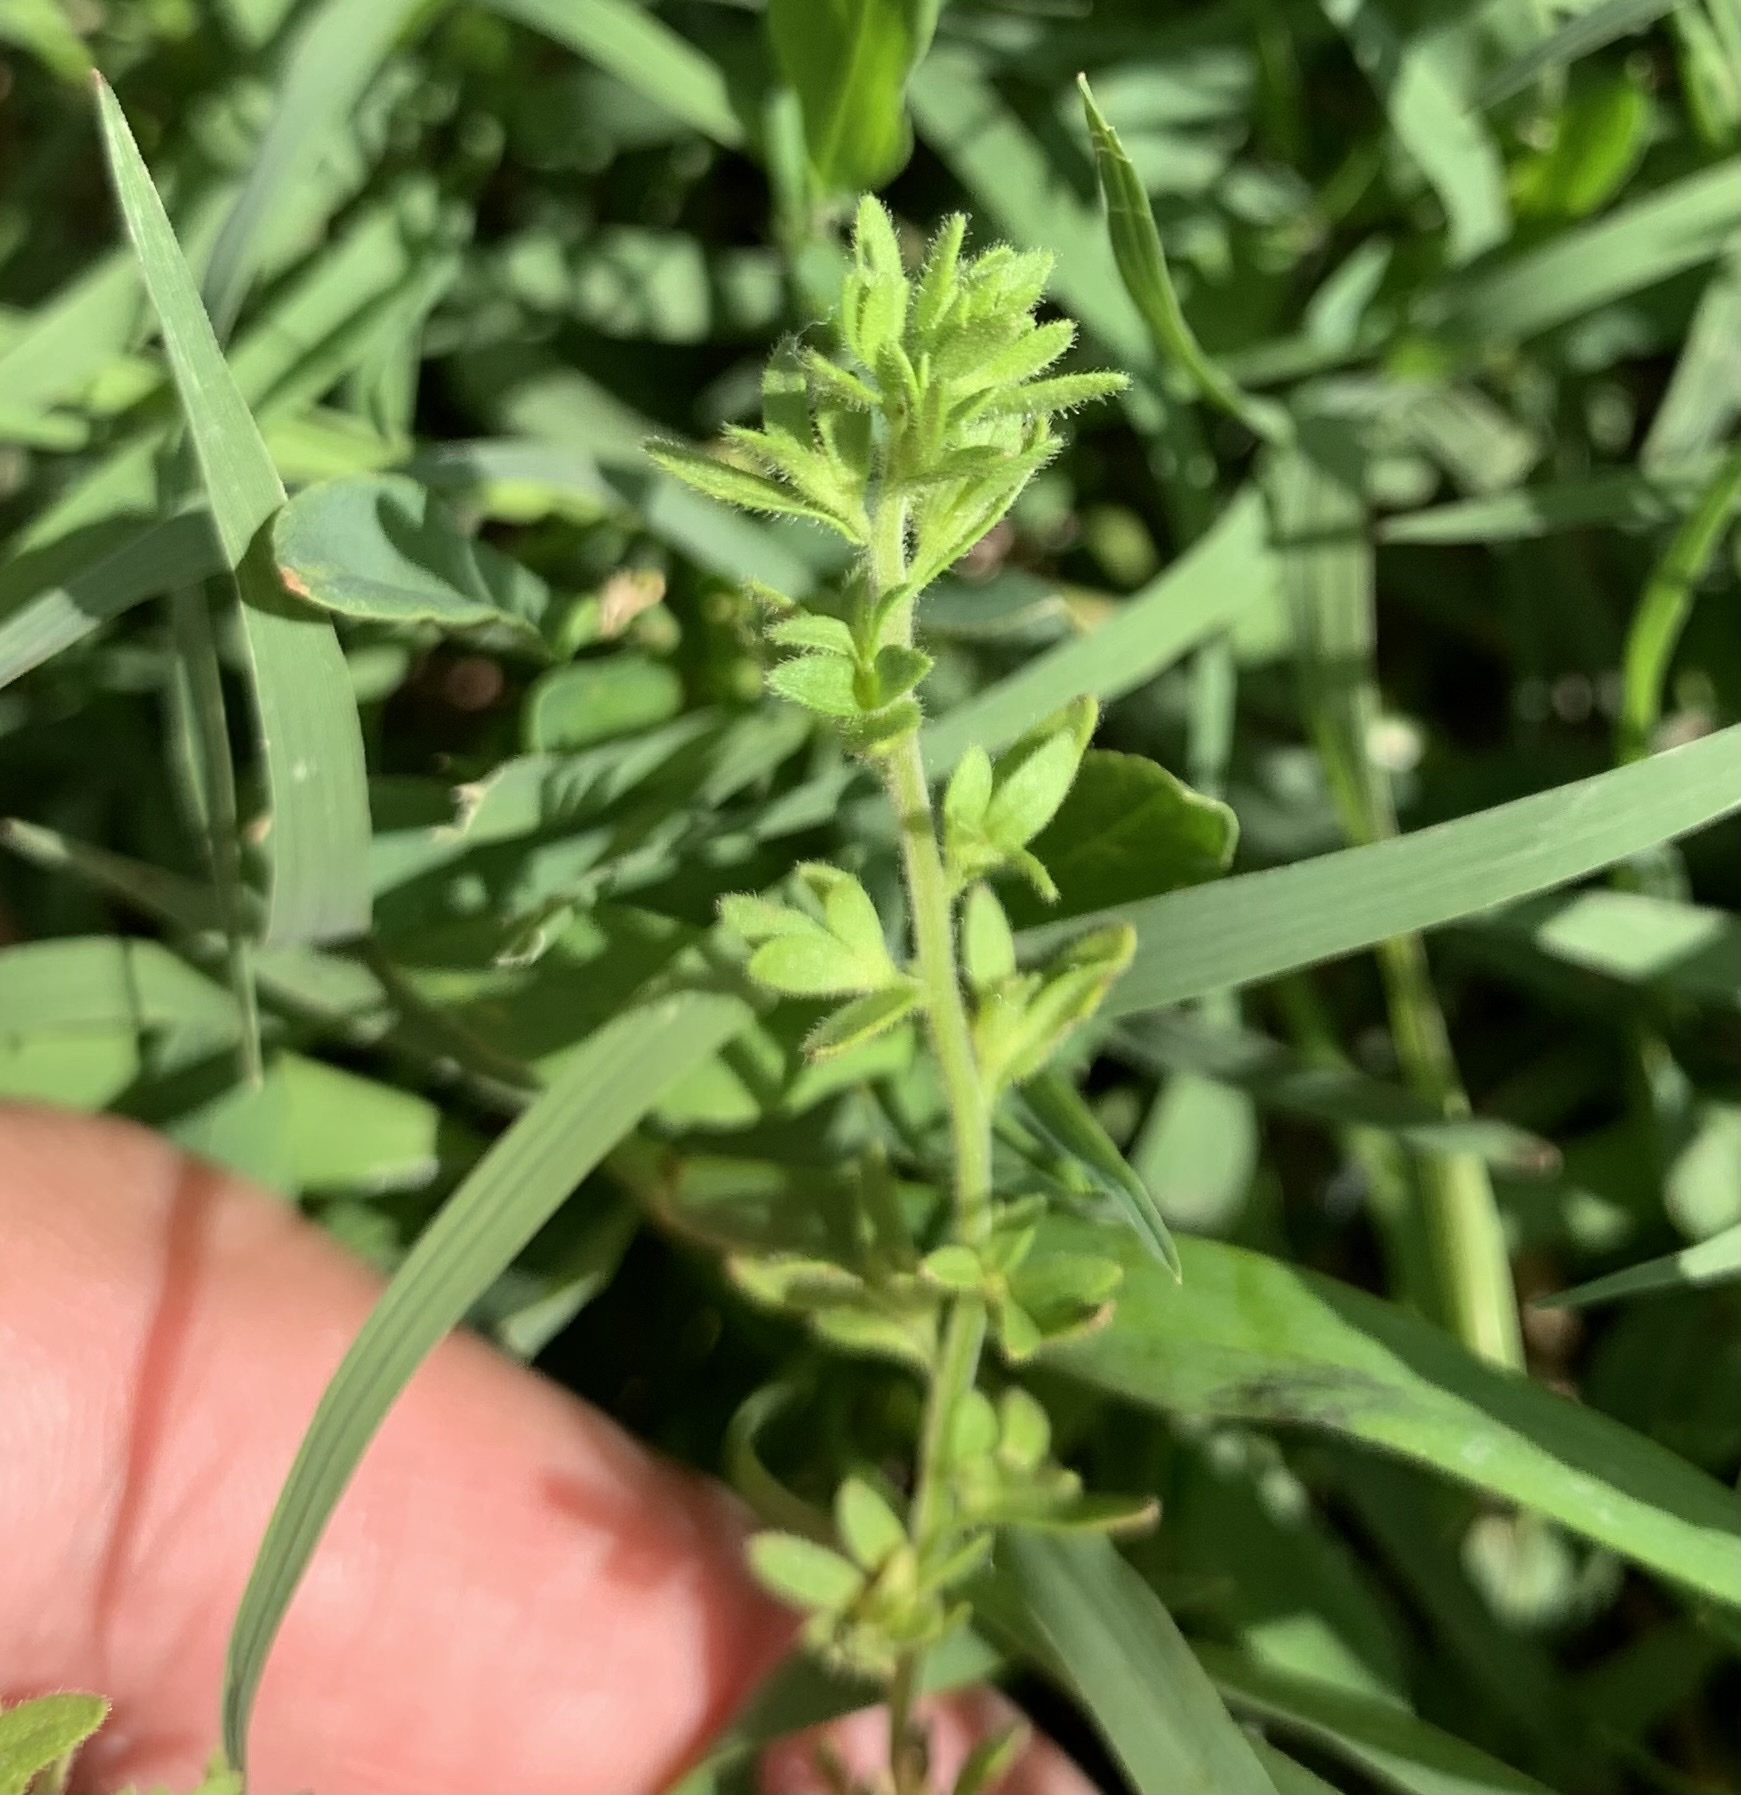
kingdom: Plantae
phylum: Tracheophyta
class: Magnoliopsida
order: Lamiales
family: Plantaginaceae
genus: Veronica
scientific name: Veronica arvensis
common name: Corn speedwell
